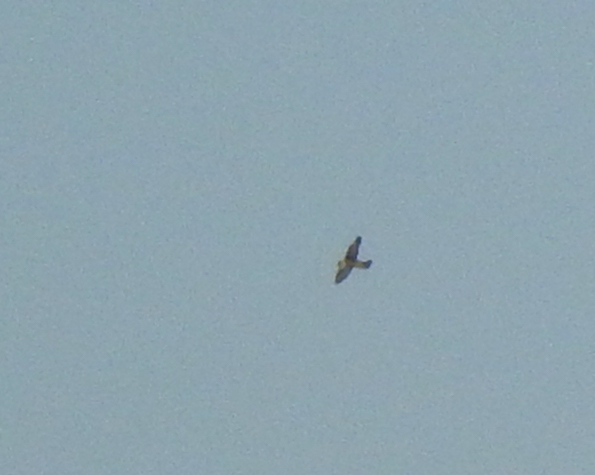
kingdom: Animalia
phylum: Chordata
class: Aves
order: Falconiformes
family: Falconidae
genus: Falco
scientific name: Falco peregrinus
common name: Peregrine falcon
